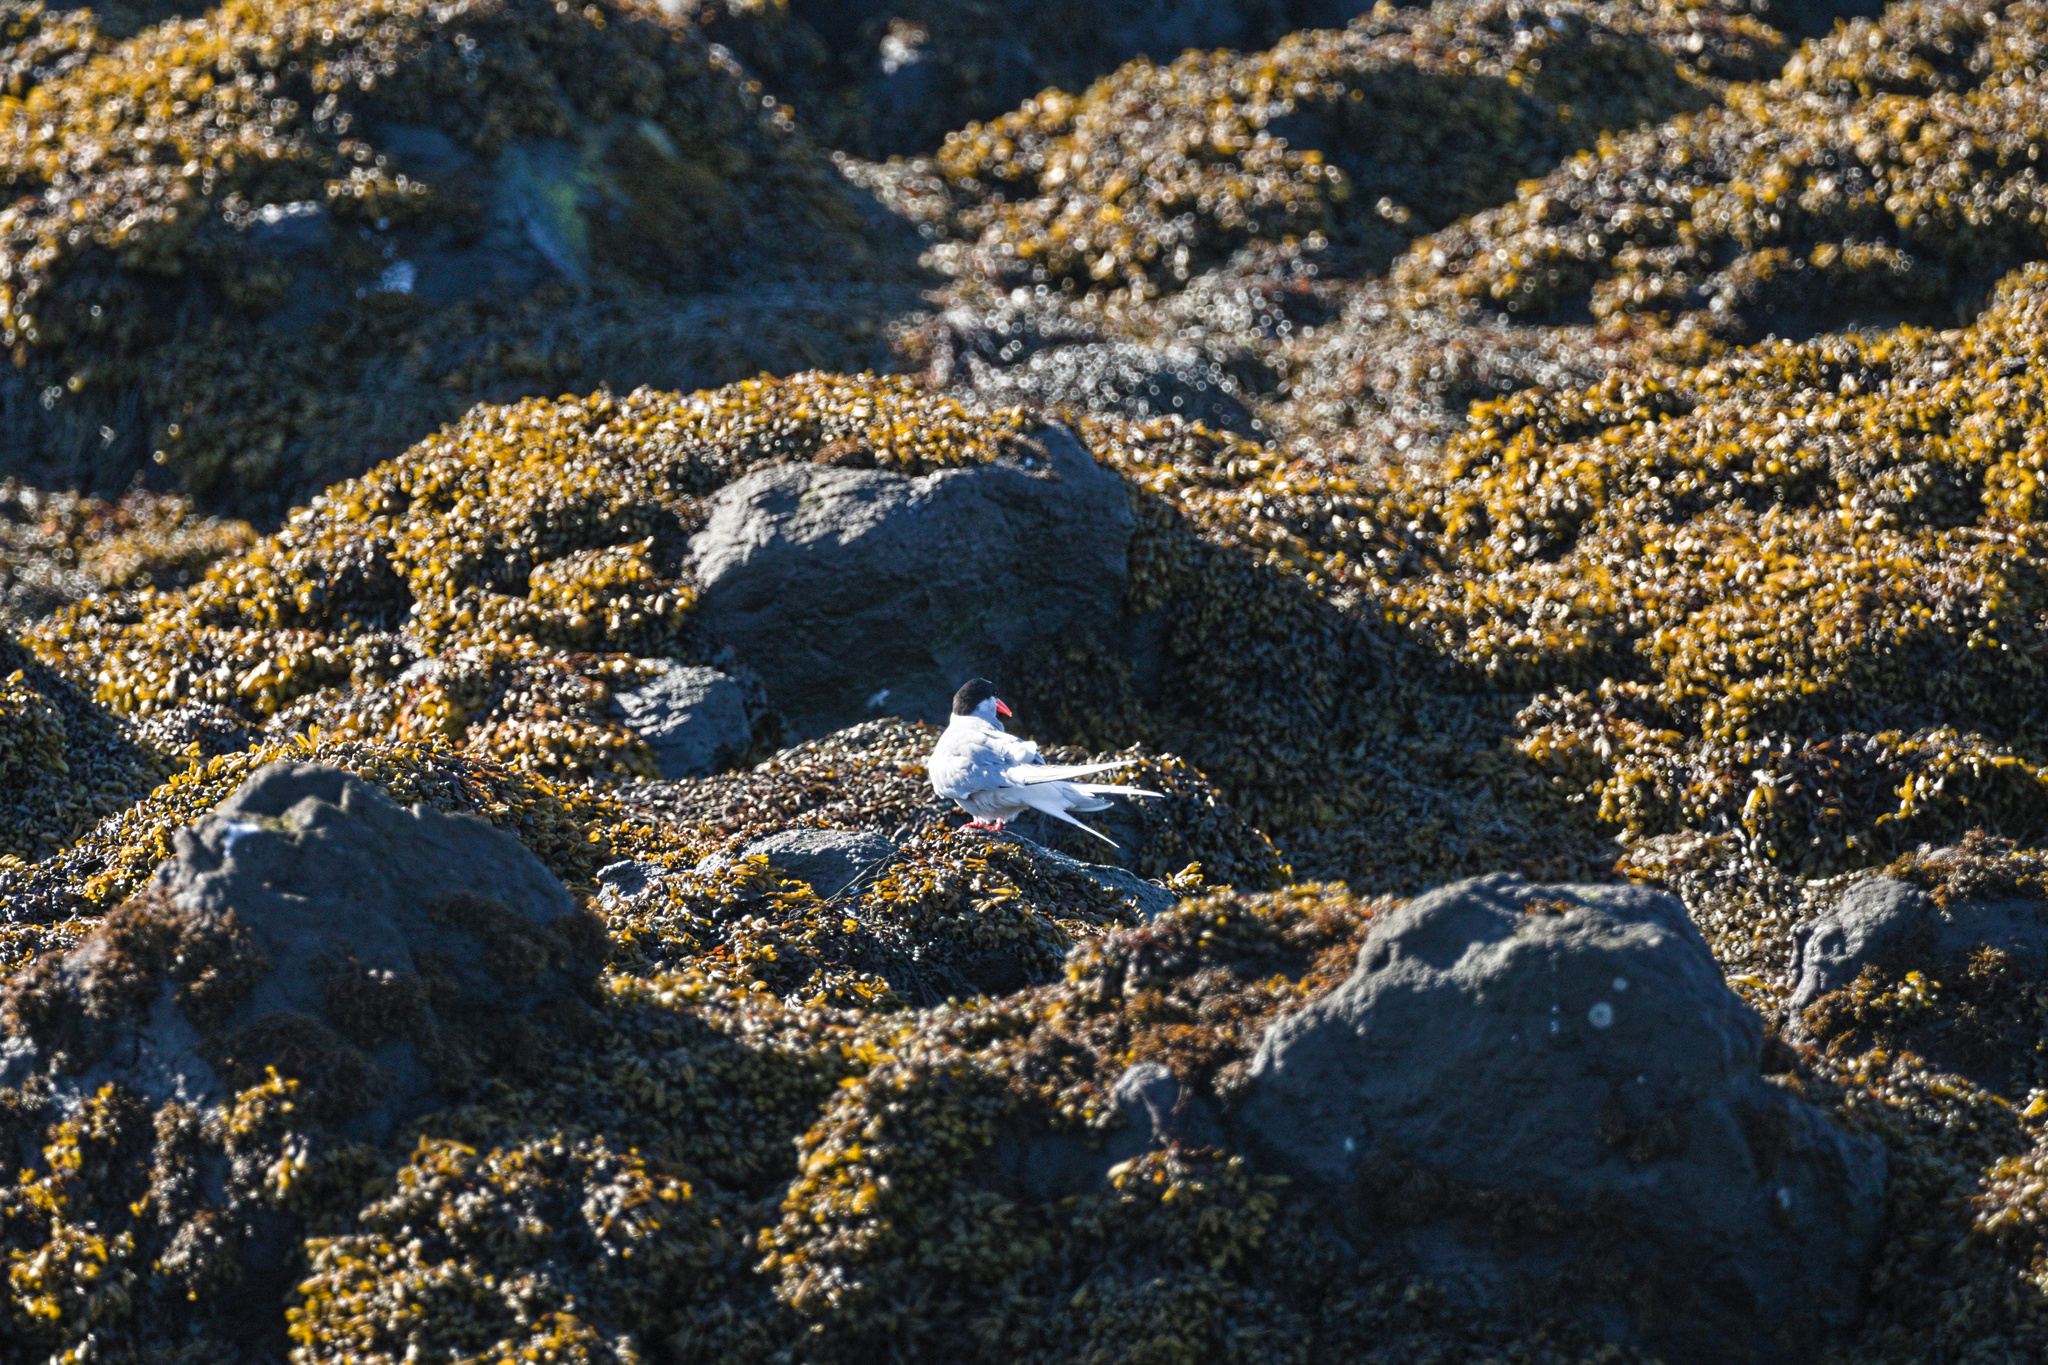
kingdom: Animalia
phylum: Chordata
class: Aves
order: Charadriiformes
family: Laridae
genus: Sterna
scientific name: Sterna paradisaea
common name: Arctic tern
